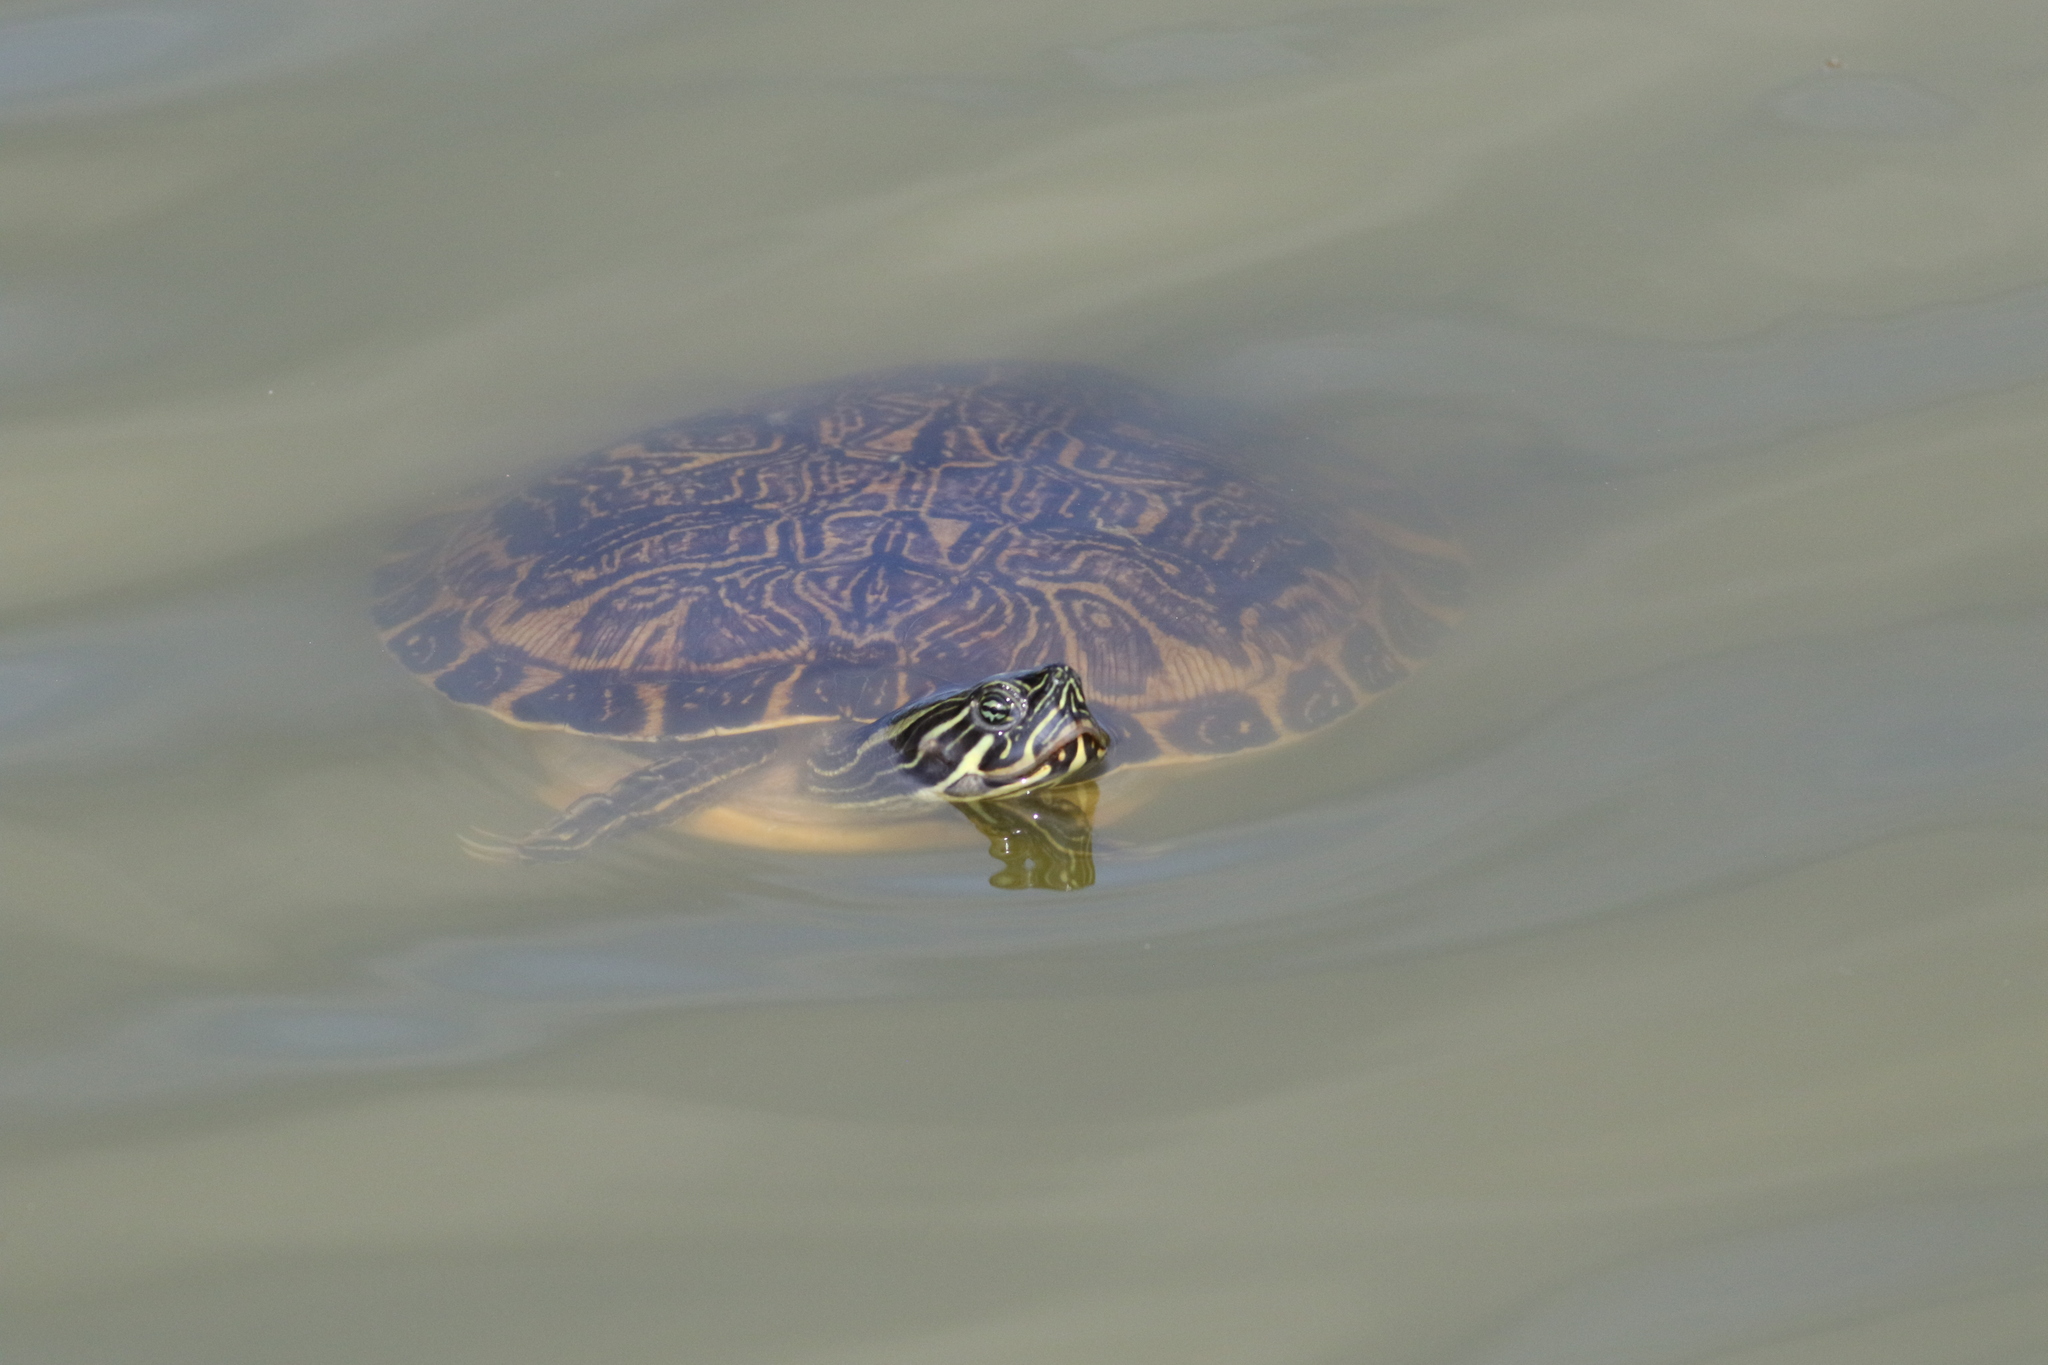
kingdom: Animalia
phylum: Chordata
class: Testudines
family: Emydidae
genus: Pseudemys
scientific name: Pseudemys concinna
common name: Eastern river cooter
